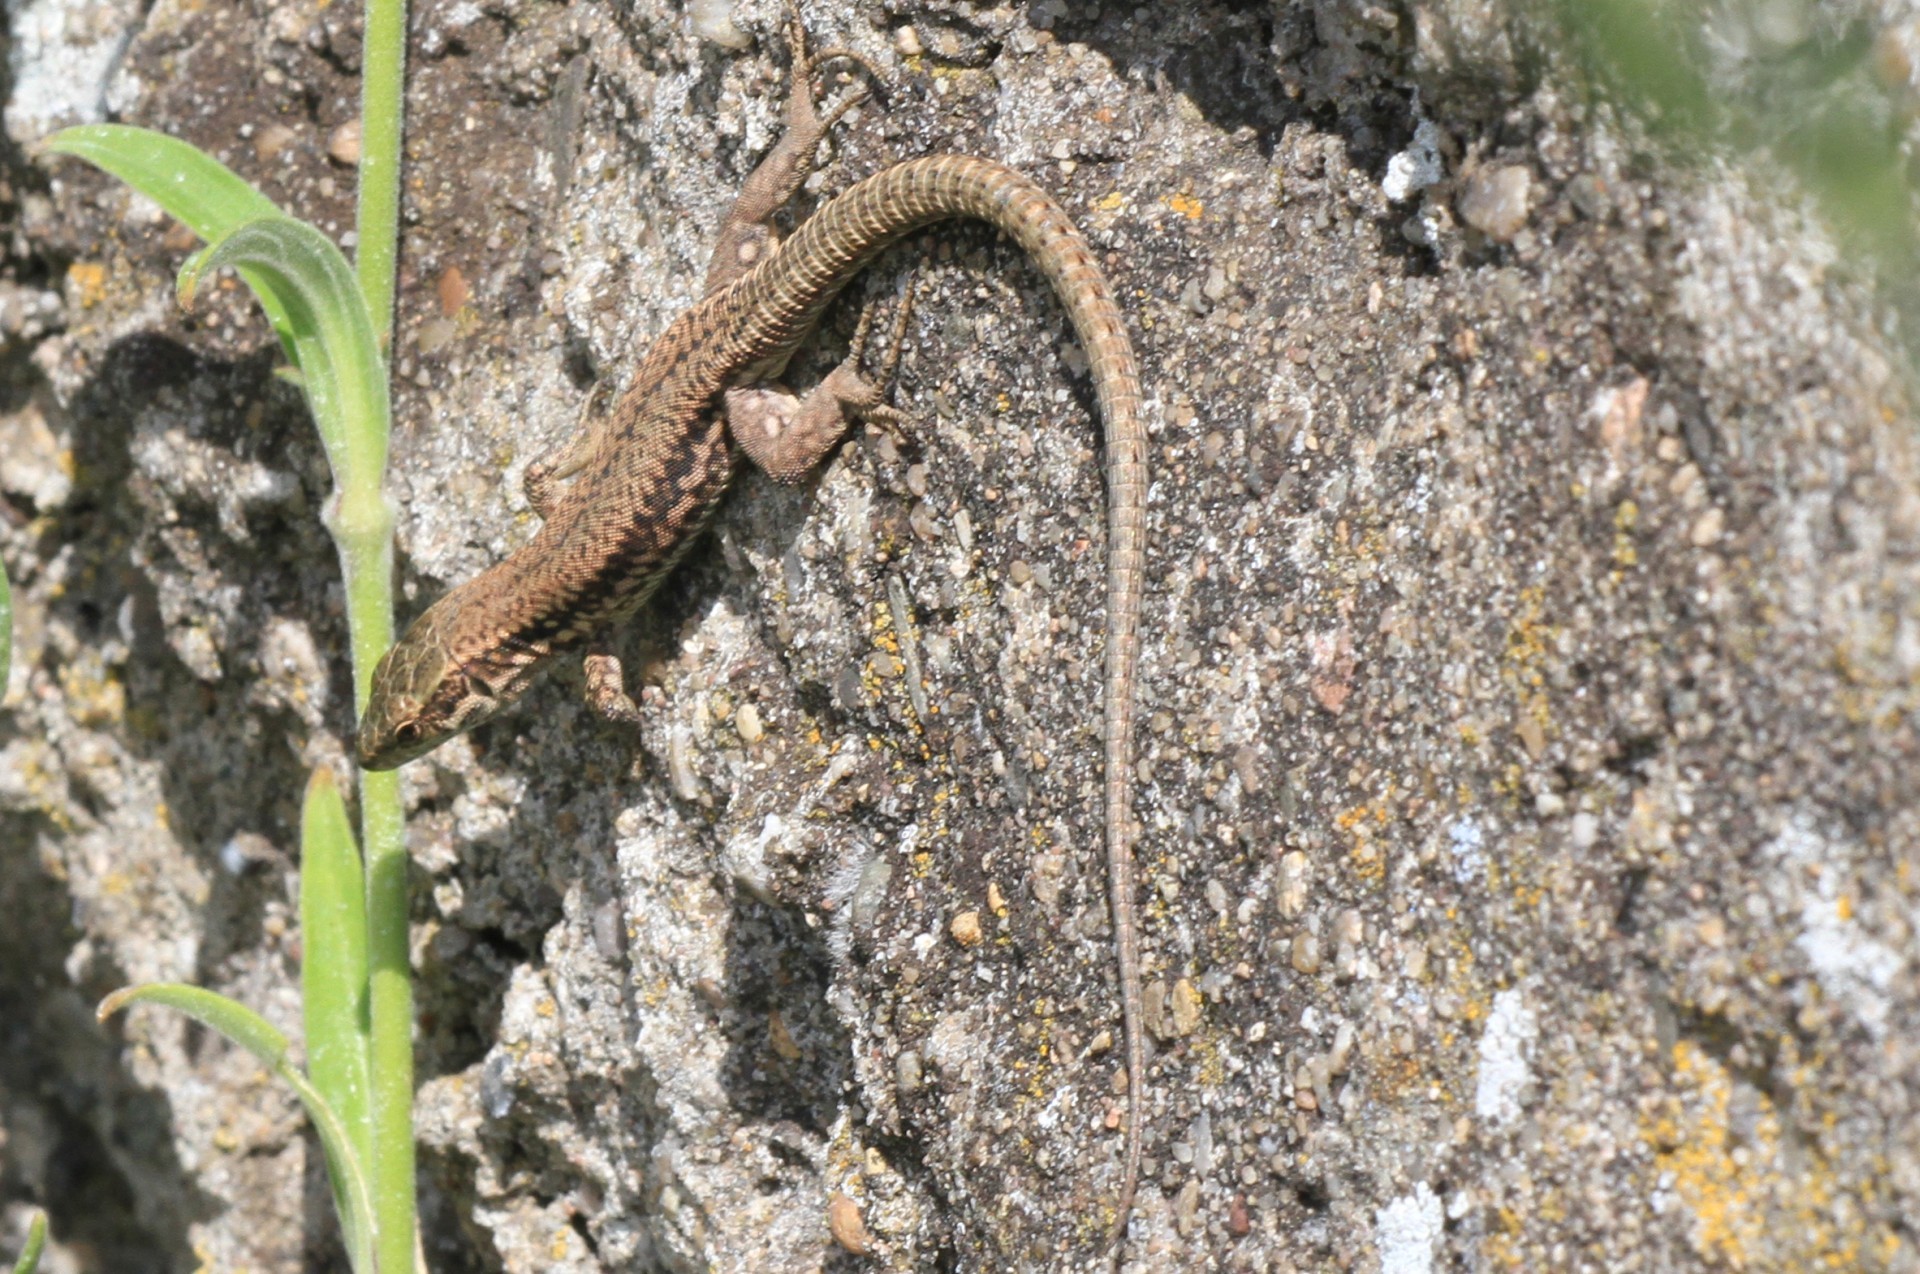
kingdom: Animalia
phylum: Chordata
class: Squamata
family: Lacertidae
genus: Podarcis
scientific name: Podarcis muralis
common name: Common wall lizard
